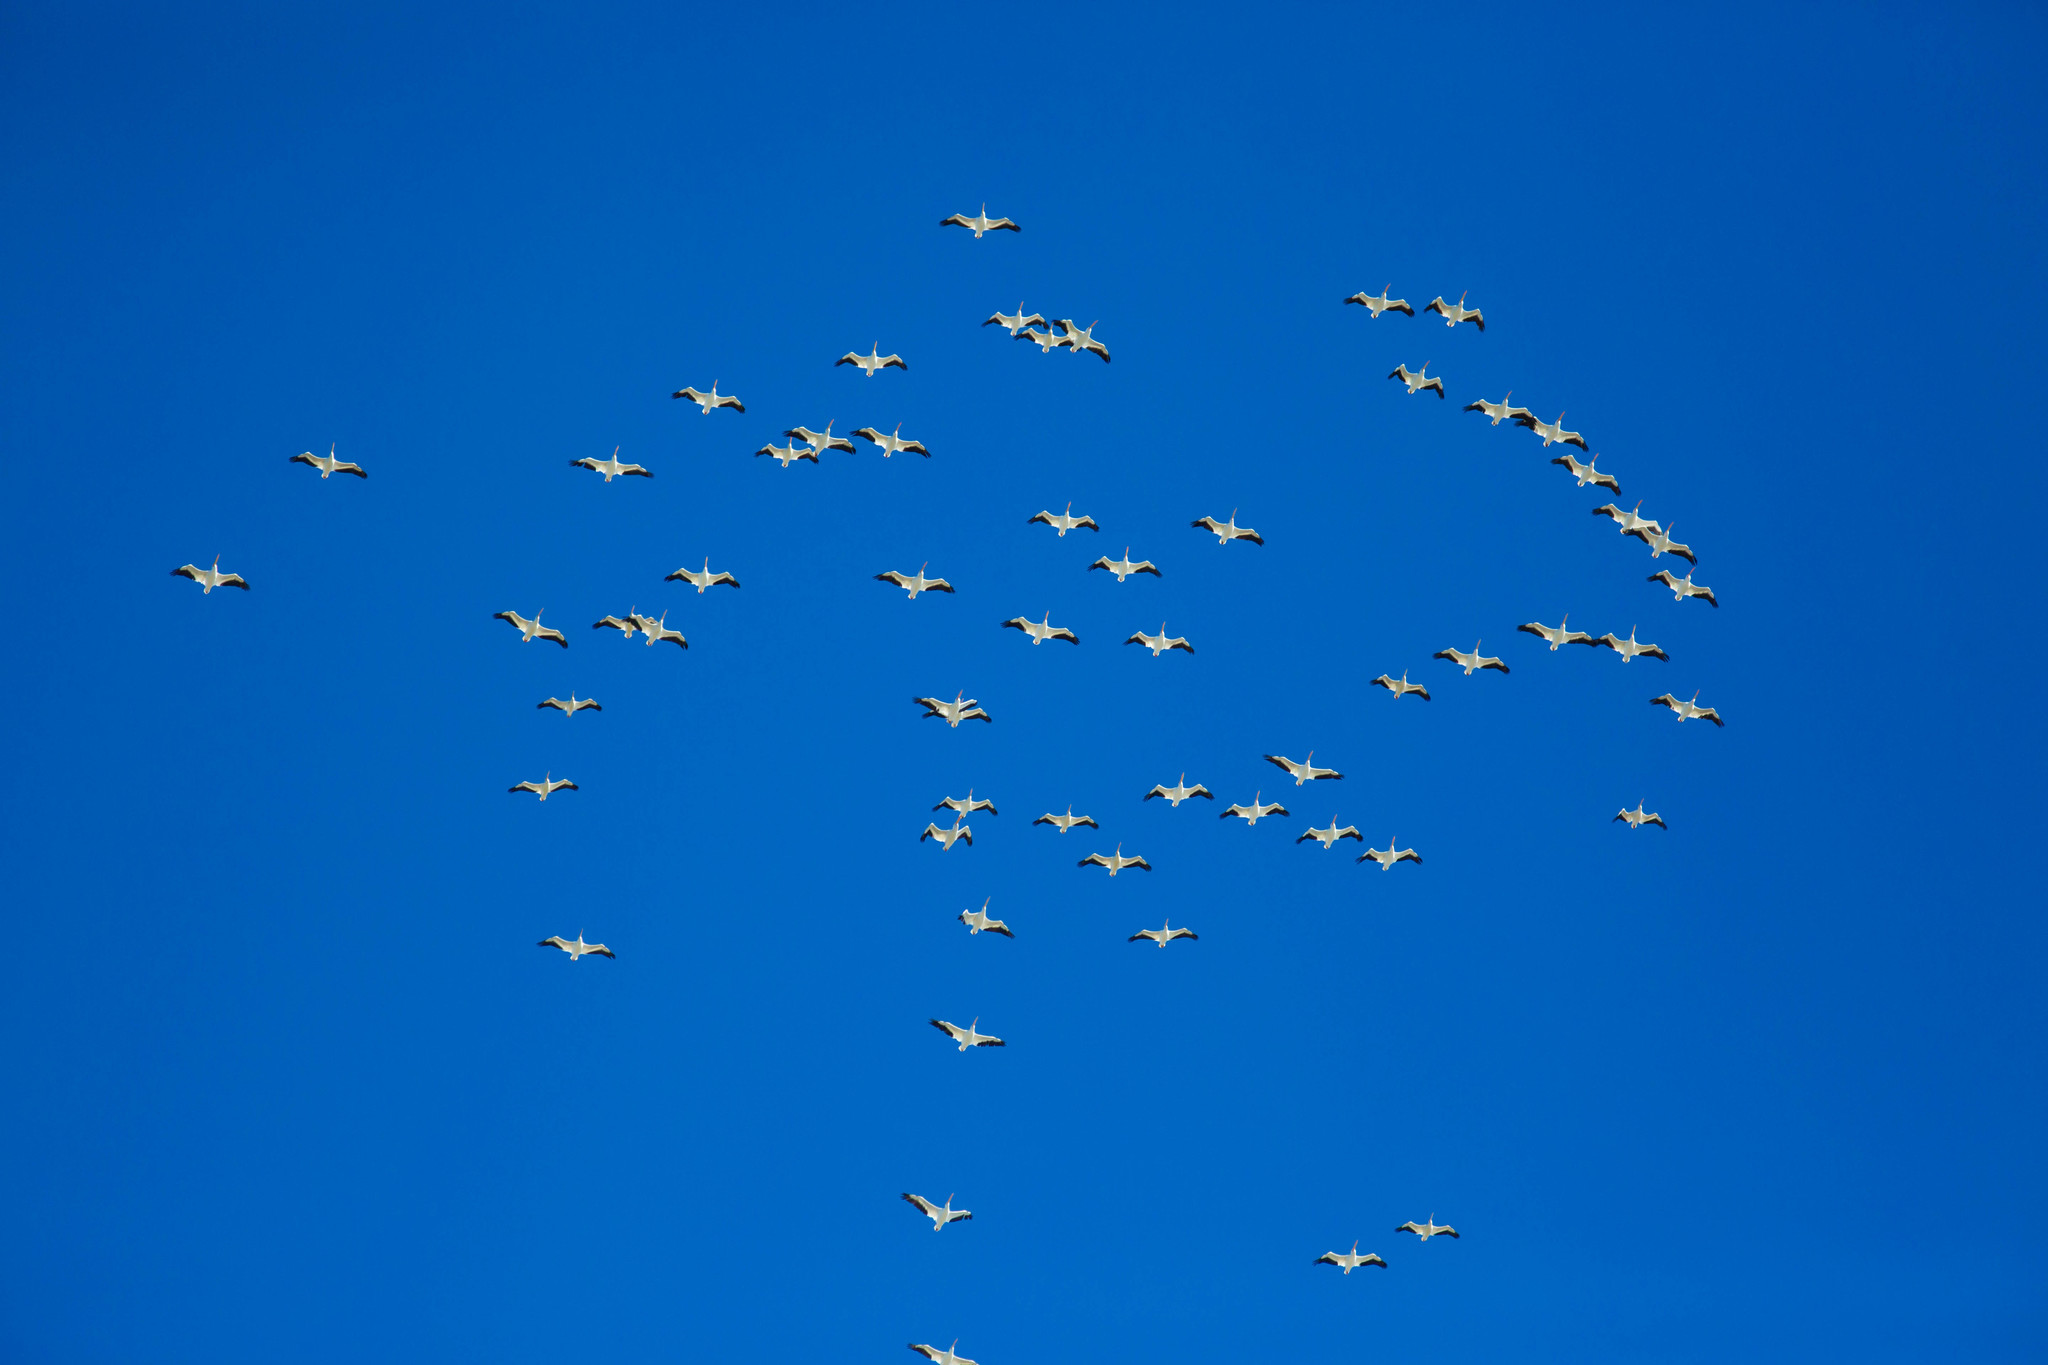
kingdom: Animalia
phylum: Chordata
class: Aves
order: Pelecaniformes
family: Pelecanidae
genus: Pelecanus
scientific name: Pelecanus erythrorhynchos
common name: American white pelican
